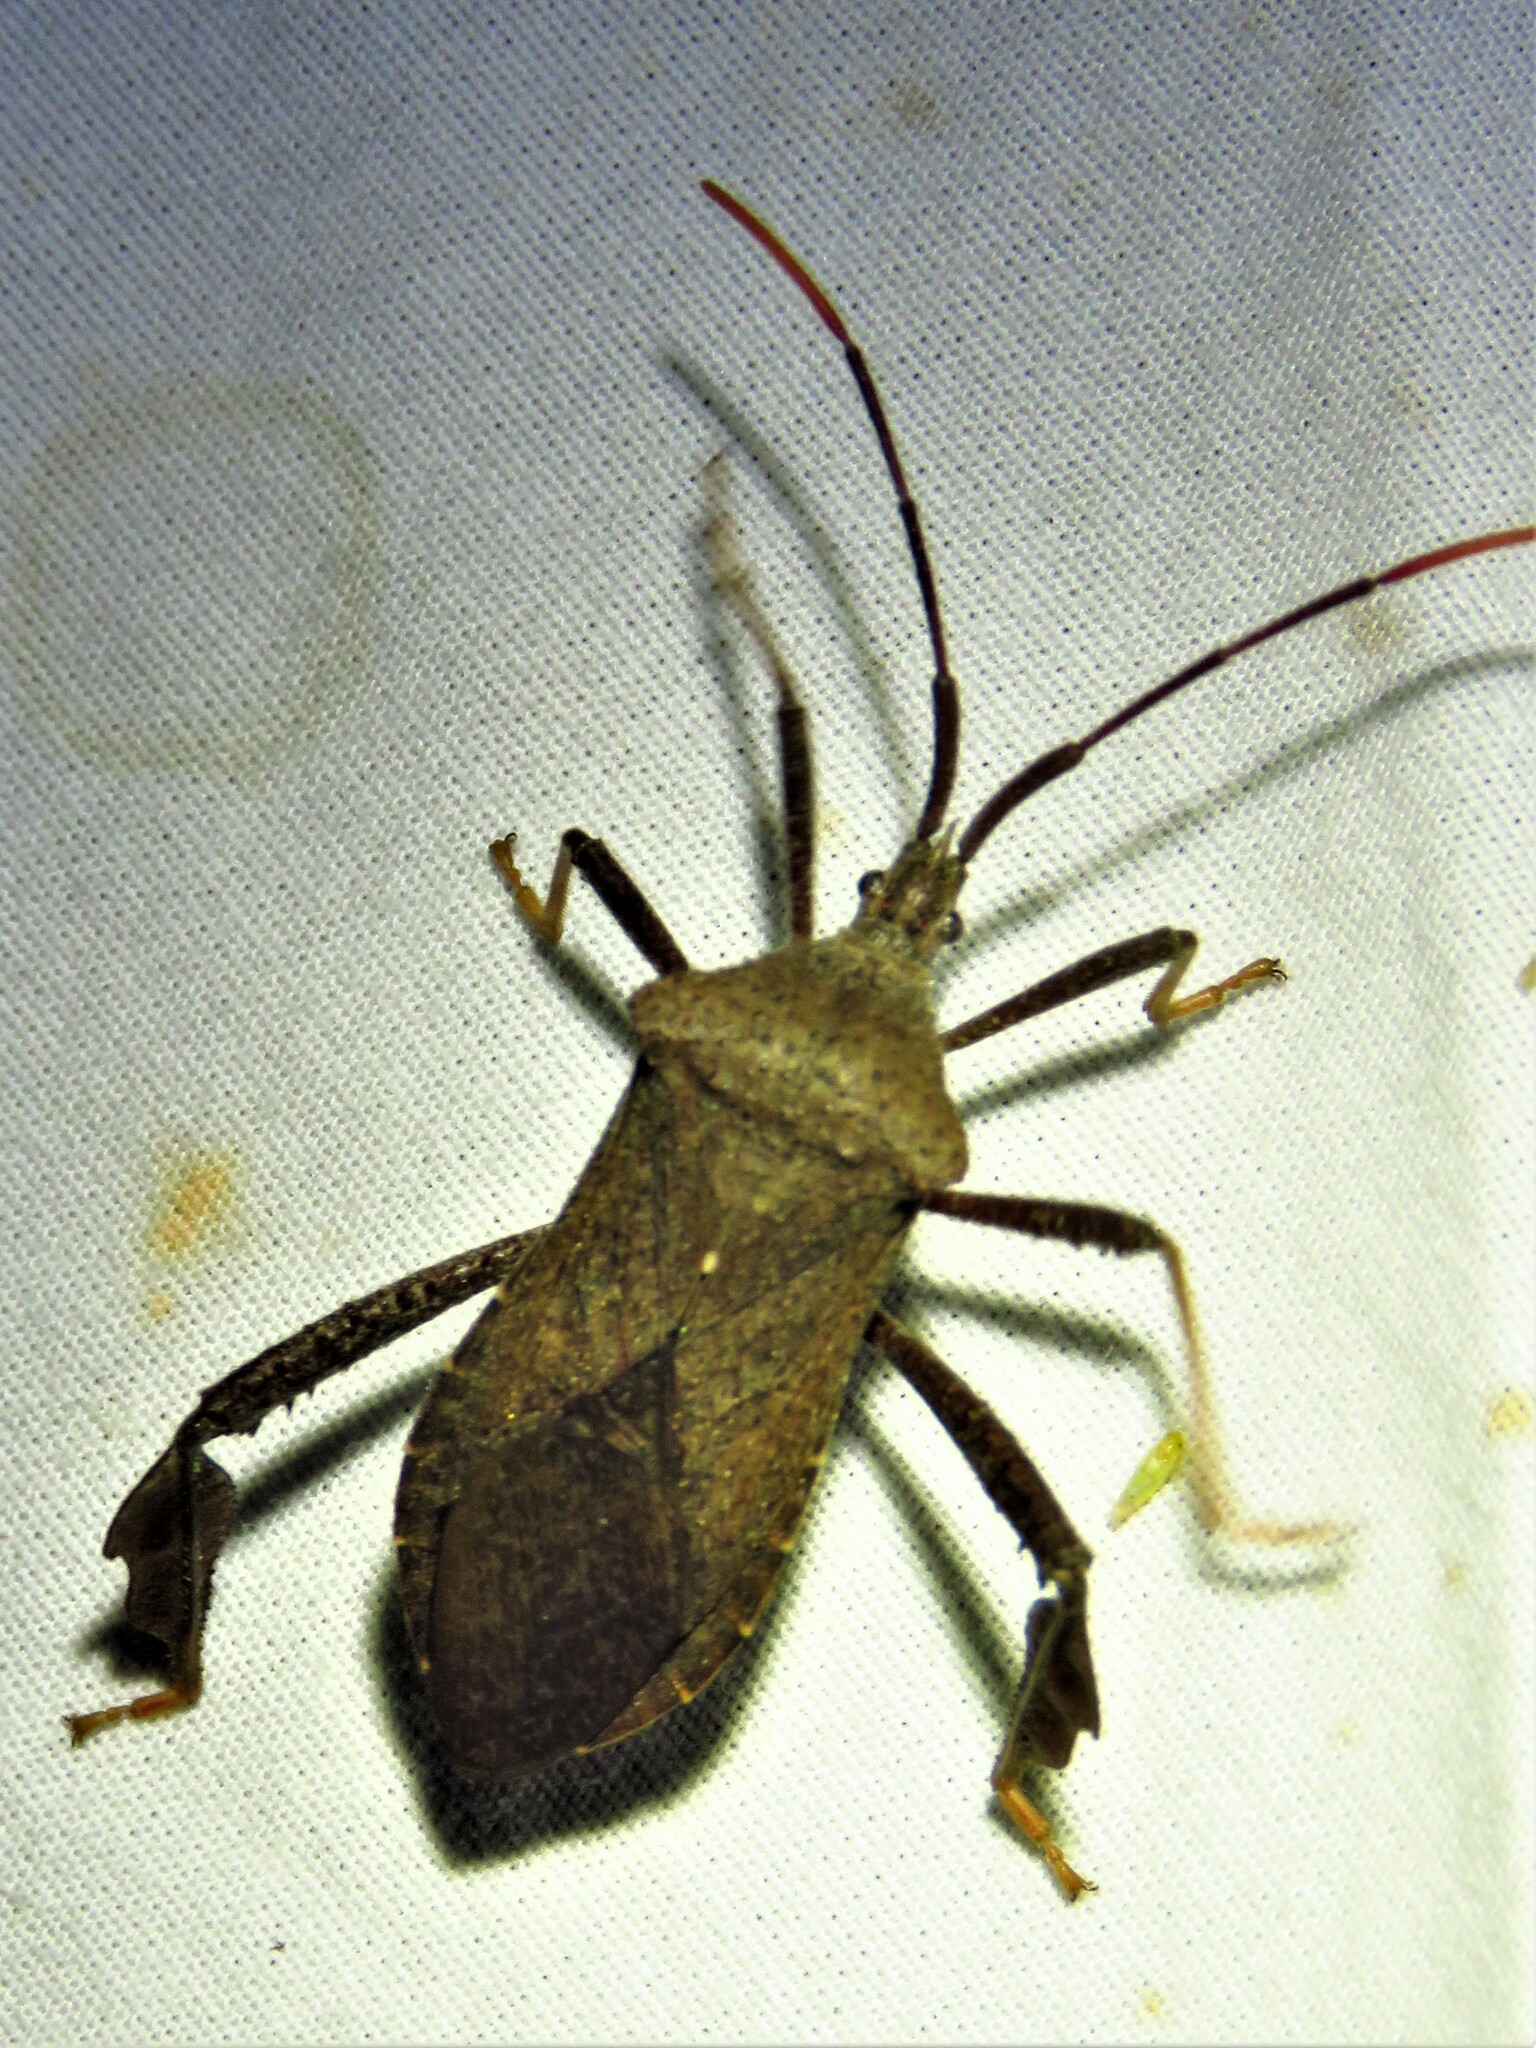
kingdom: Animalia
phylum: Arthropoda
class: Insecta
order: Hemiptera
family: Coreidae
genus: Acanthocephala
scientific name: Acanthocephala terminalis
